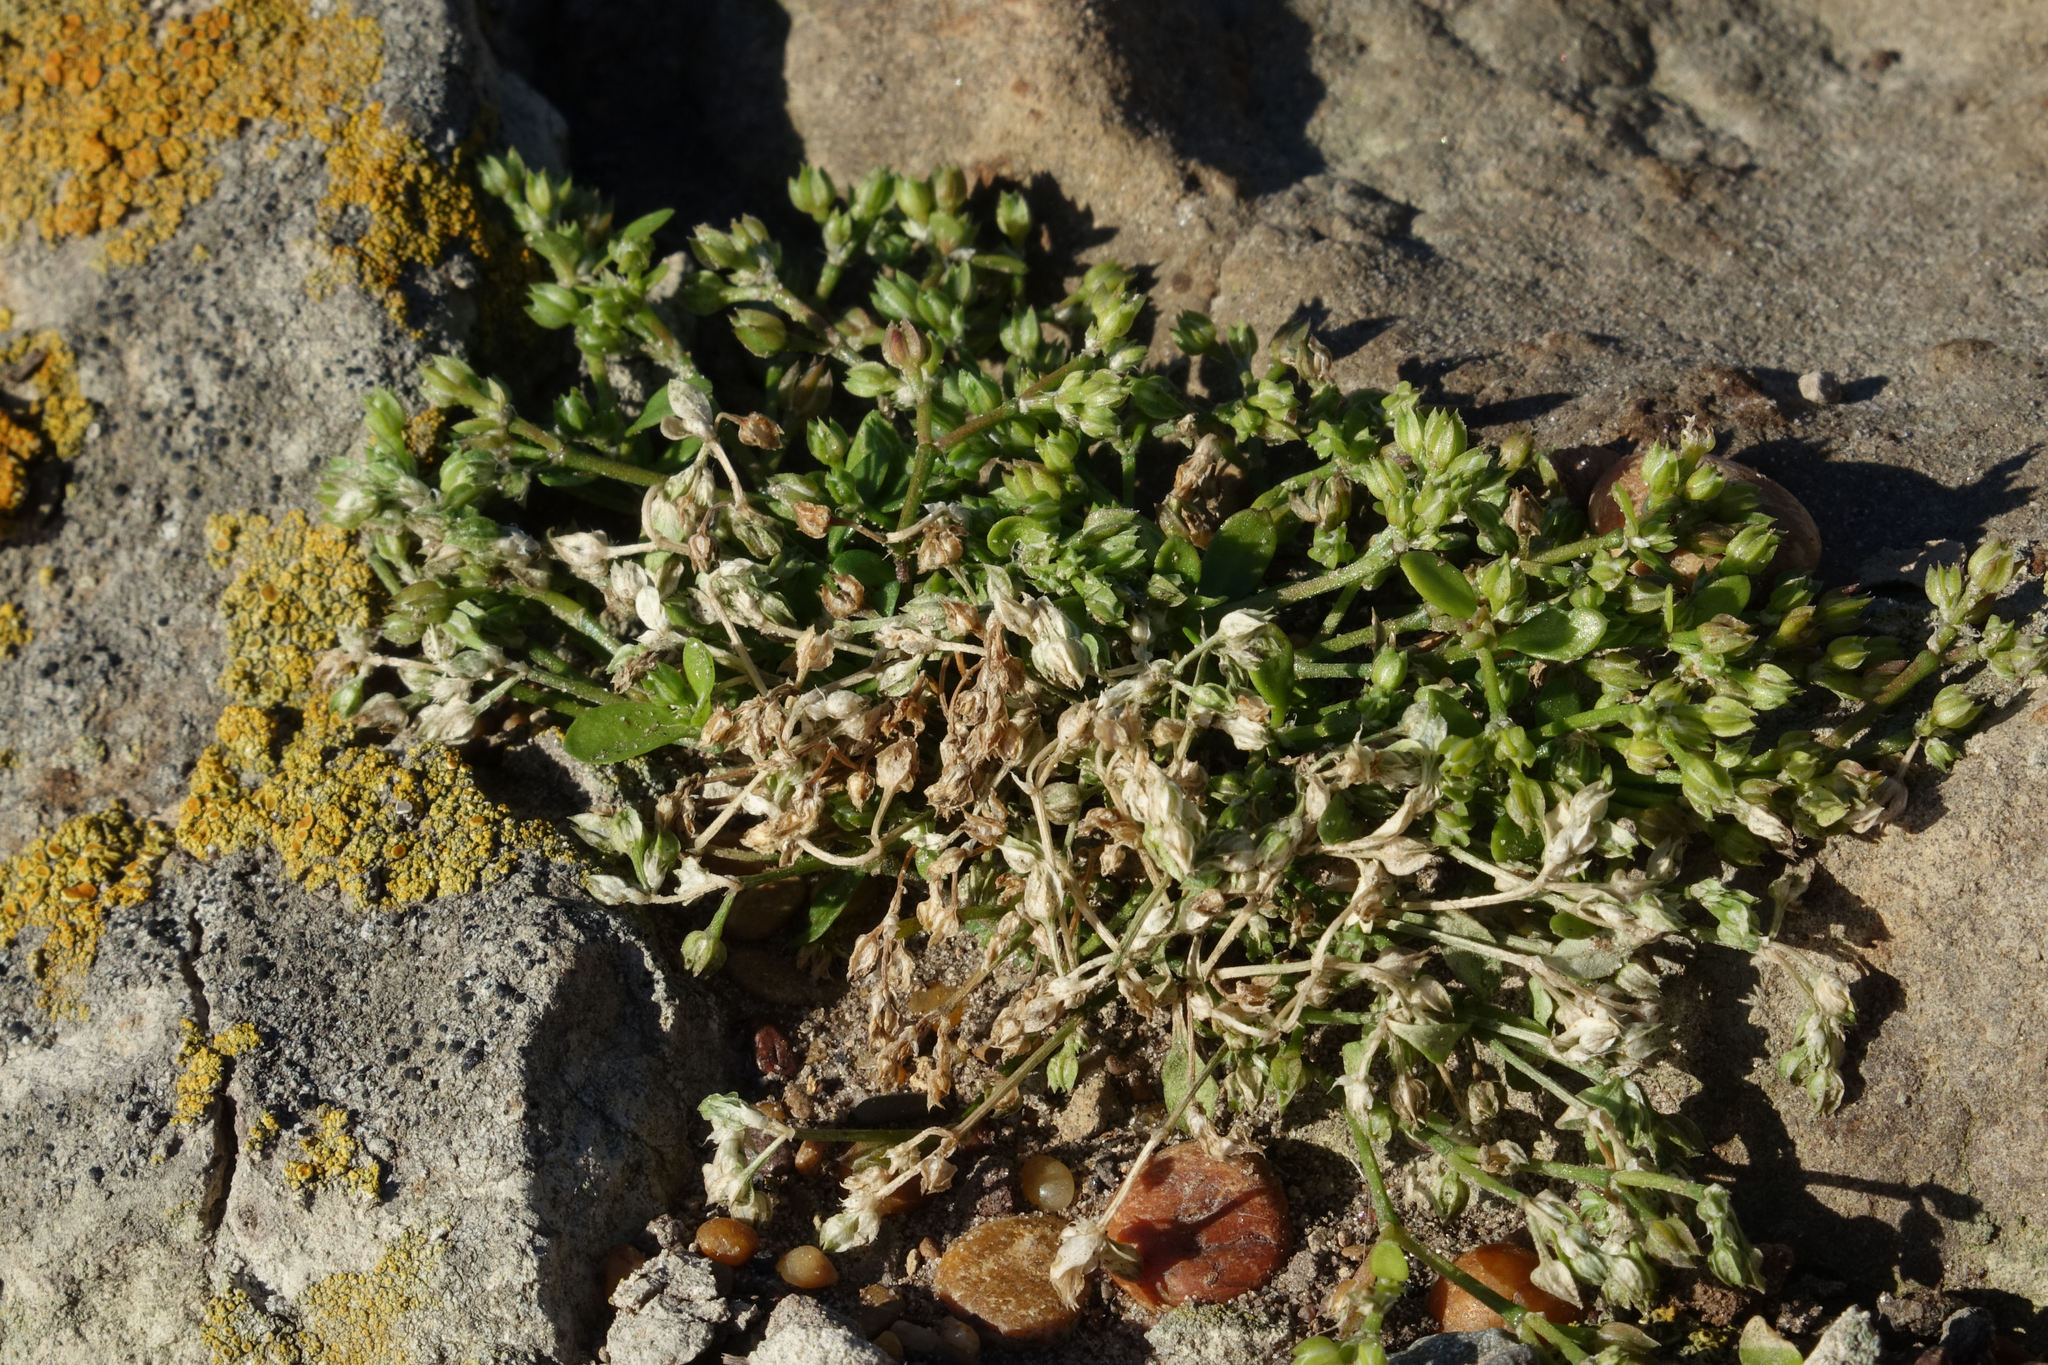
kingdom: Plantae
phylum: Tracheophyta
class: Magnoliopsida
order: Caryophyllales
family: Caryophyllaceae
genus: Polycarpon
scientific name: Polycarpon tetraphyllum
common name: Four-leaved all-seed
